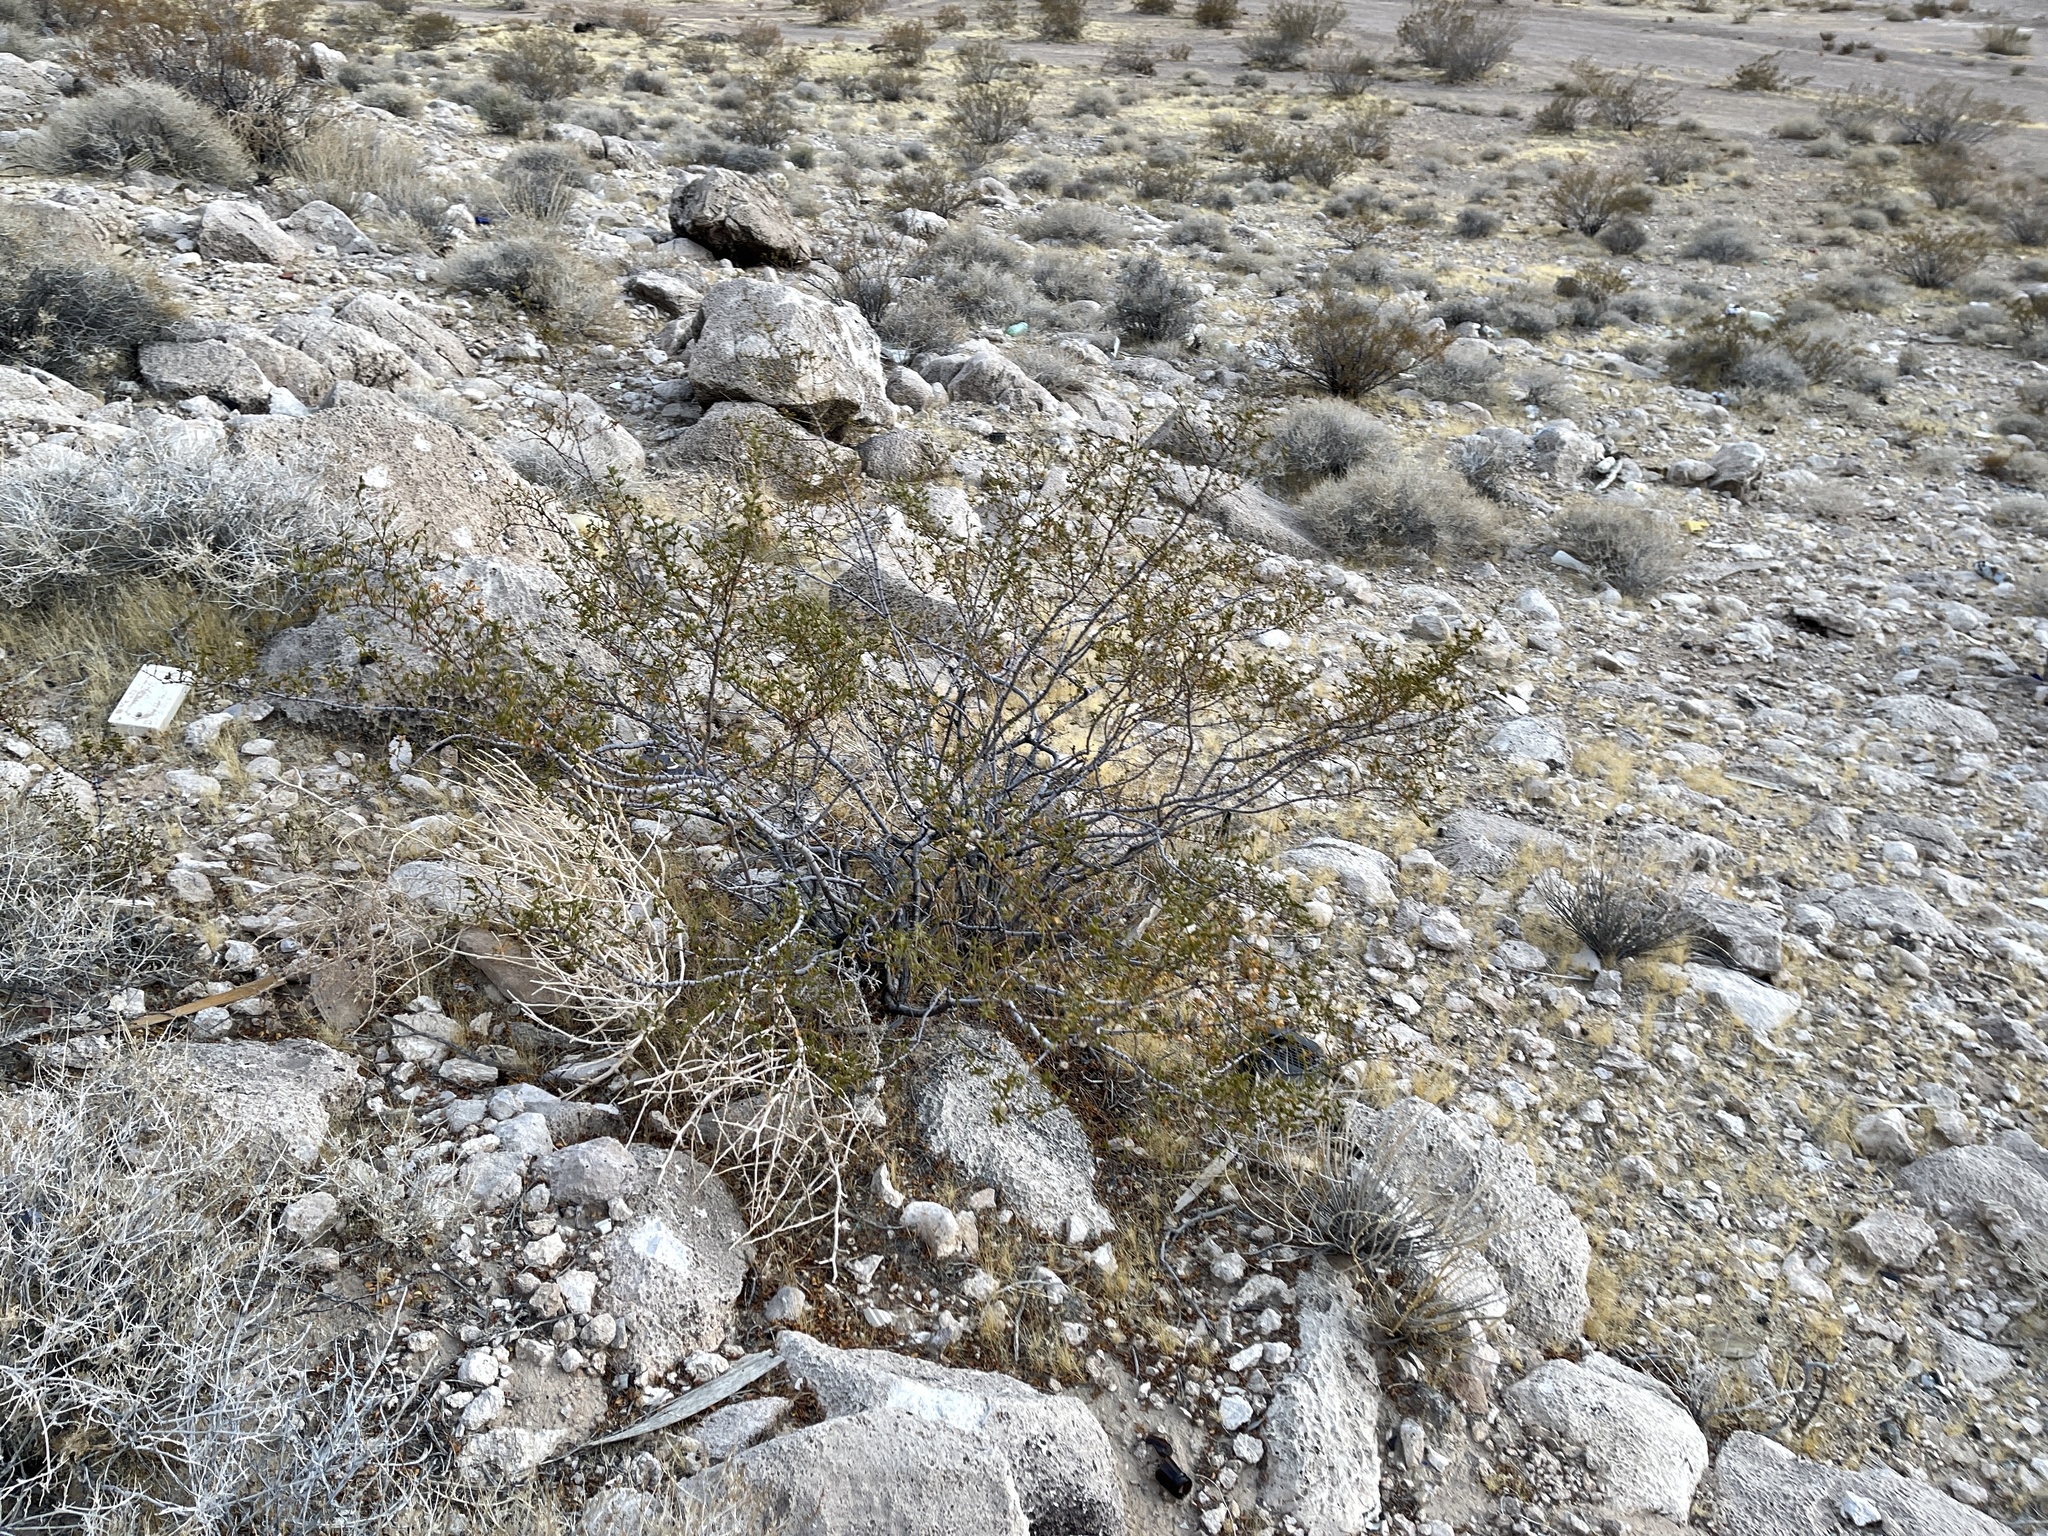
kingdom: Plantae
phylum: Tracheophyta
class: Magnoliopsida
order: Zygophyllales
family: Zygophyllaceae
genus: Larrea
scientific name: Larrea tridentata
